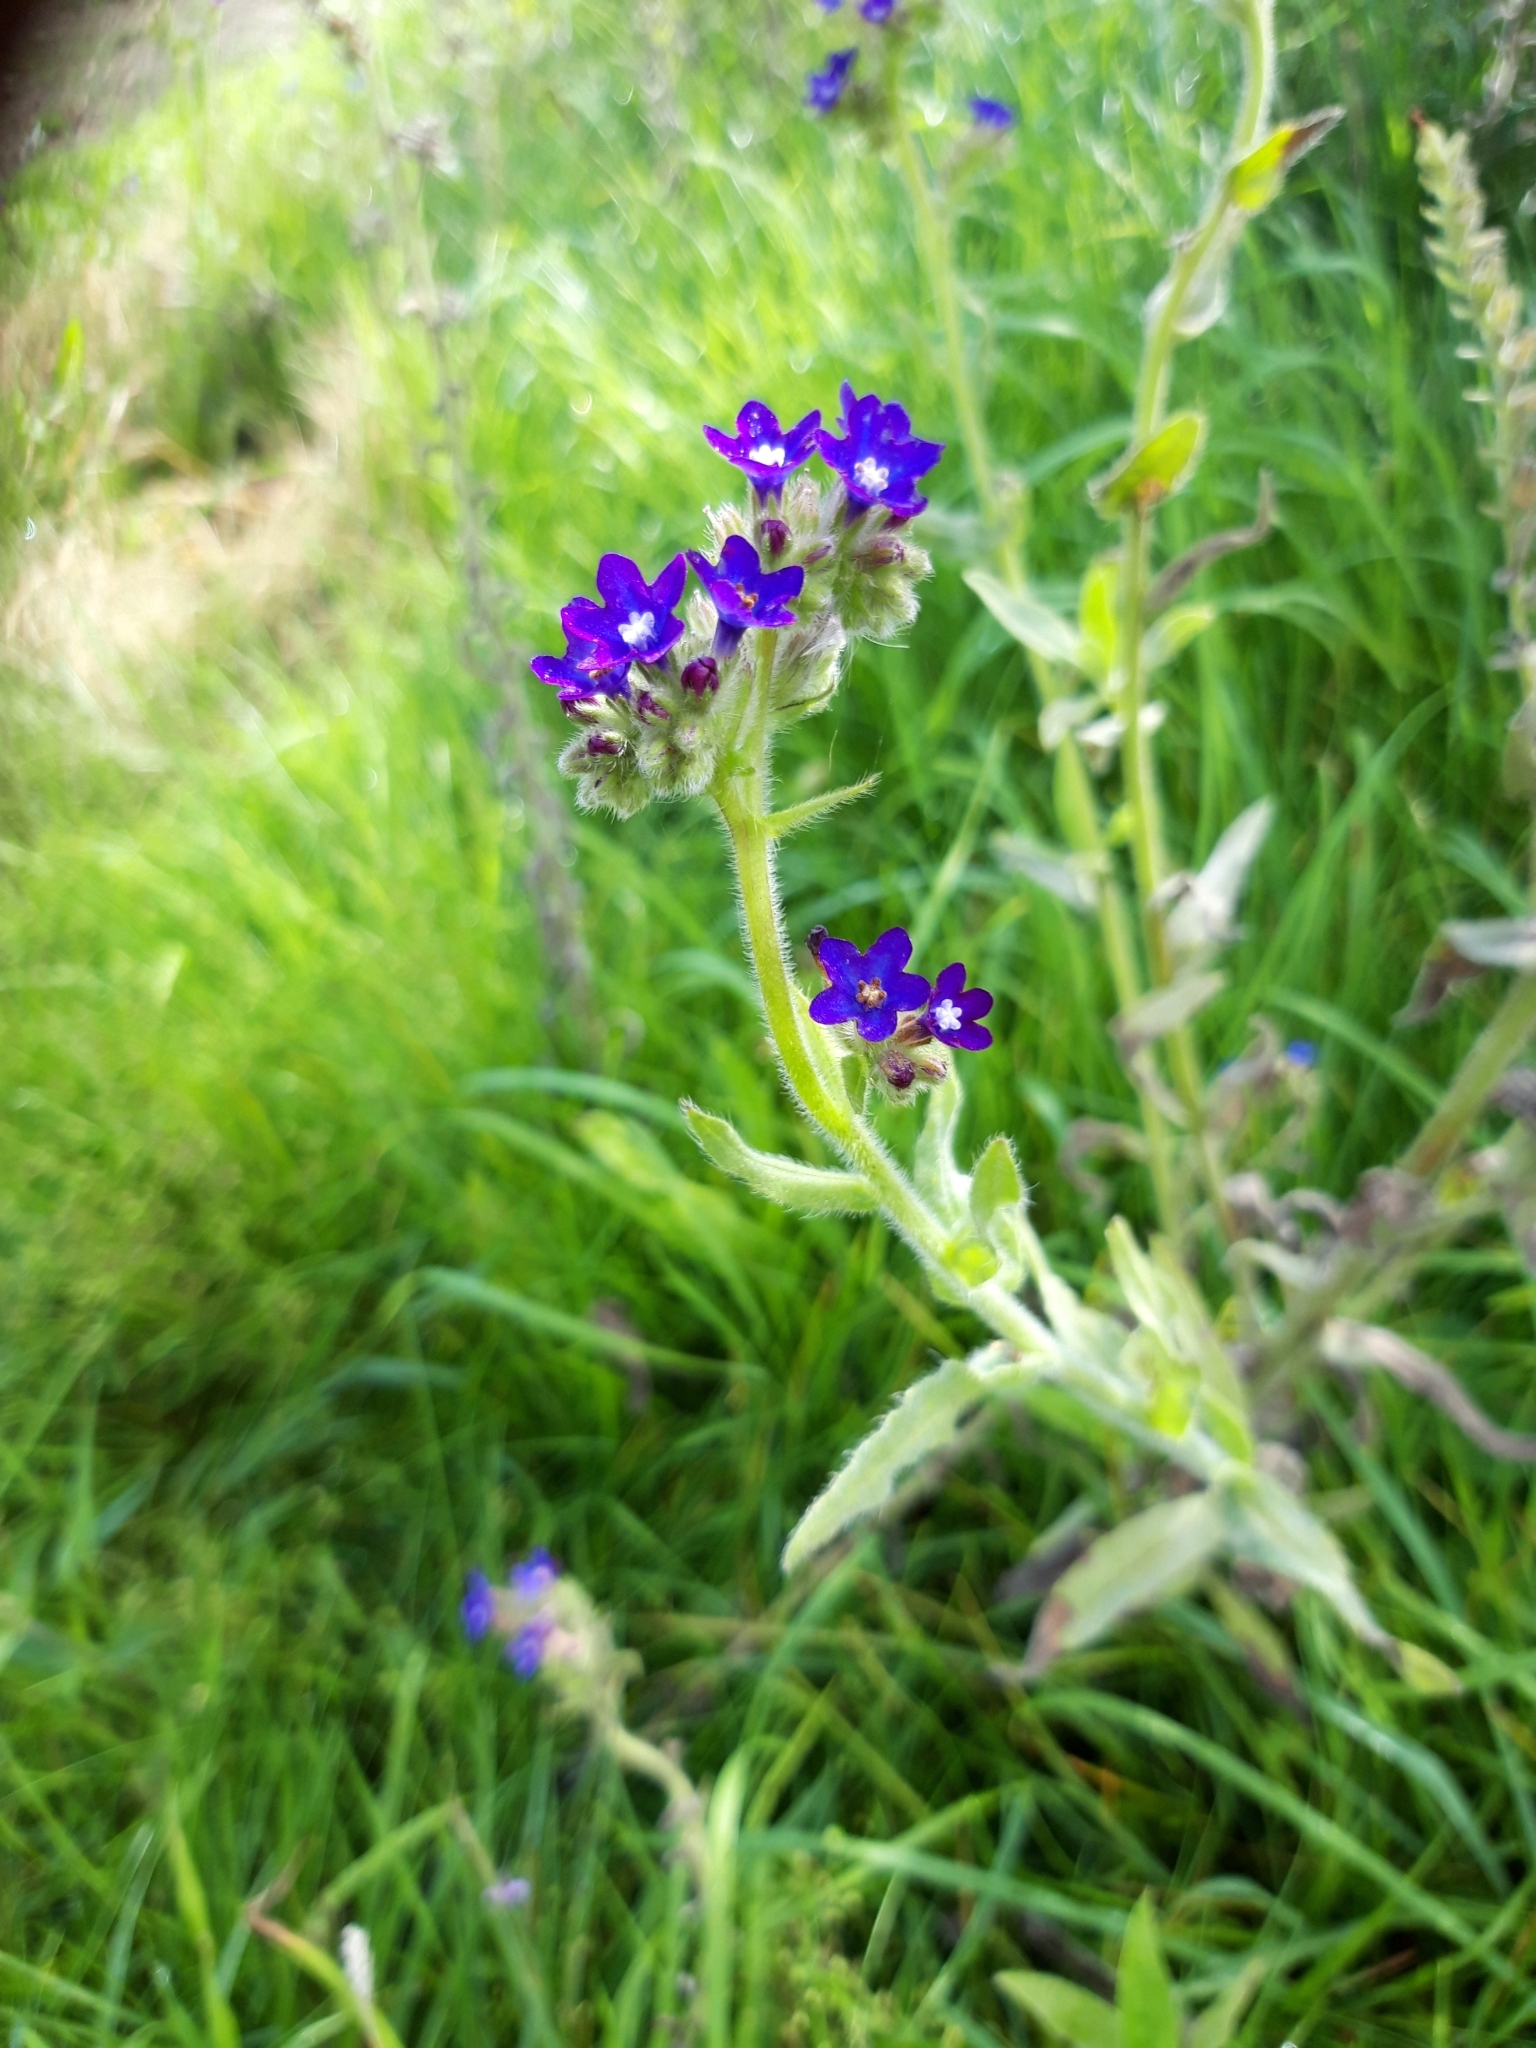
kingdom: Plantae
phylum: Tracheophyta
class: Magnoliopsida
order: Boraginales
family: Boraginaceae
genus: Anchusa
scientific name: Anchusa officinalis
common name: Alkanet
